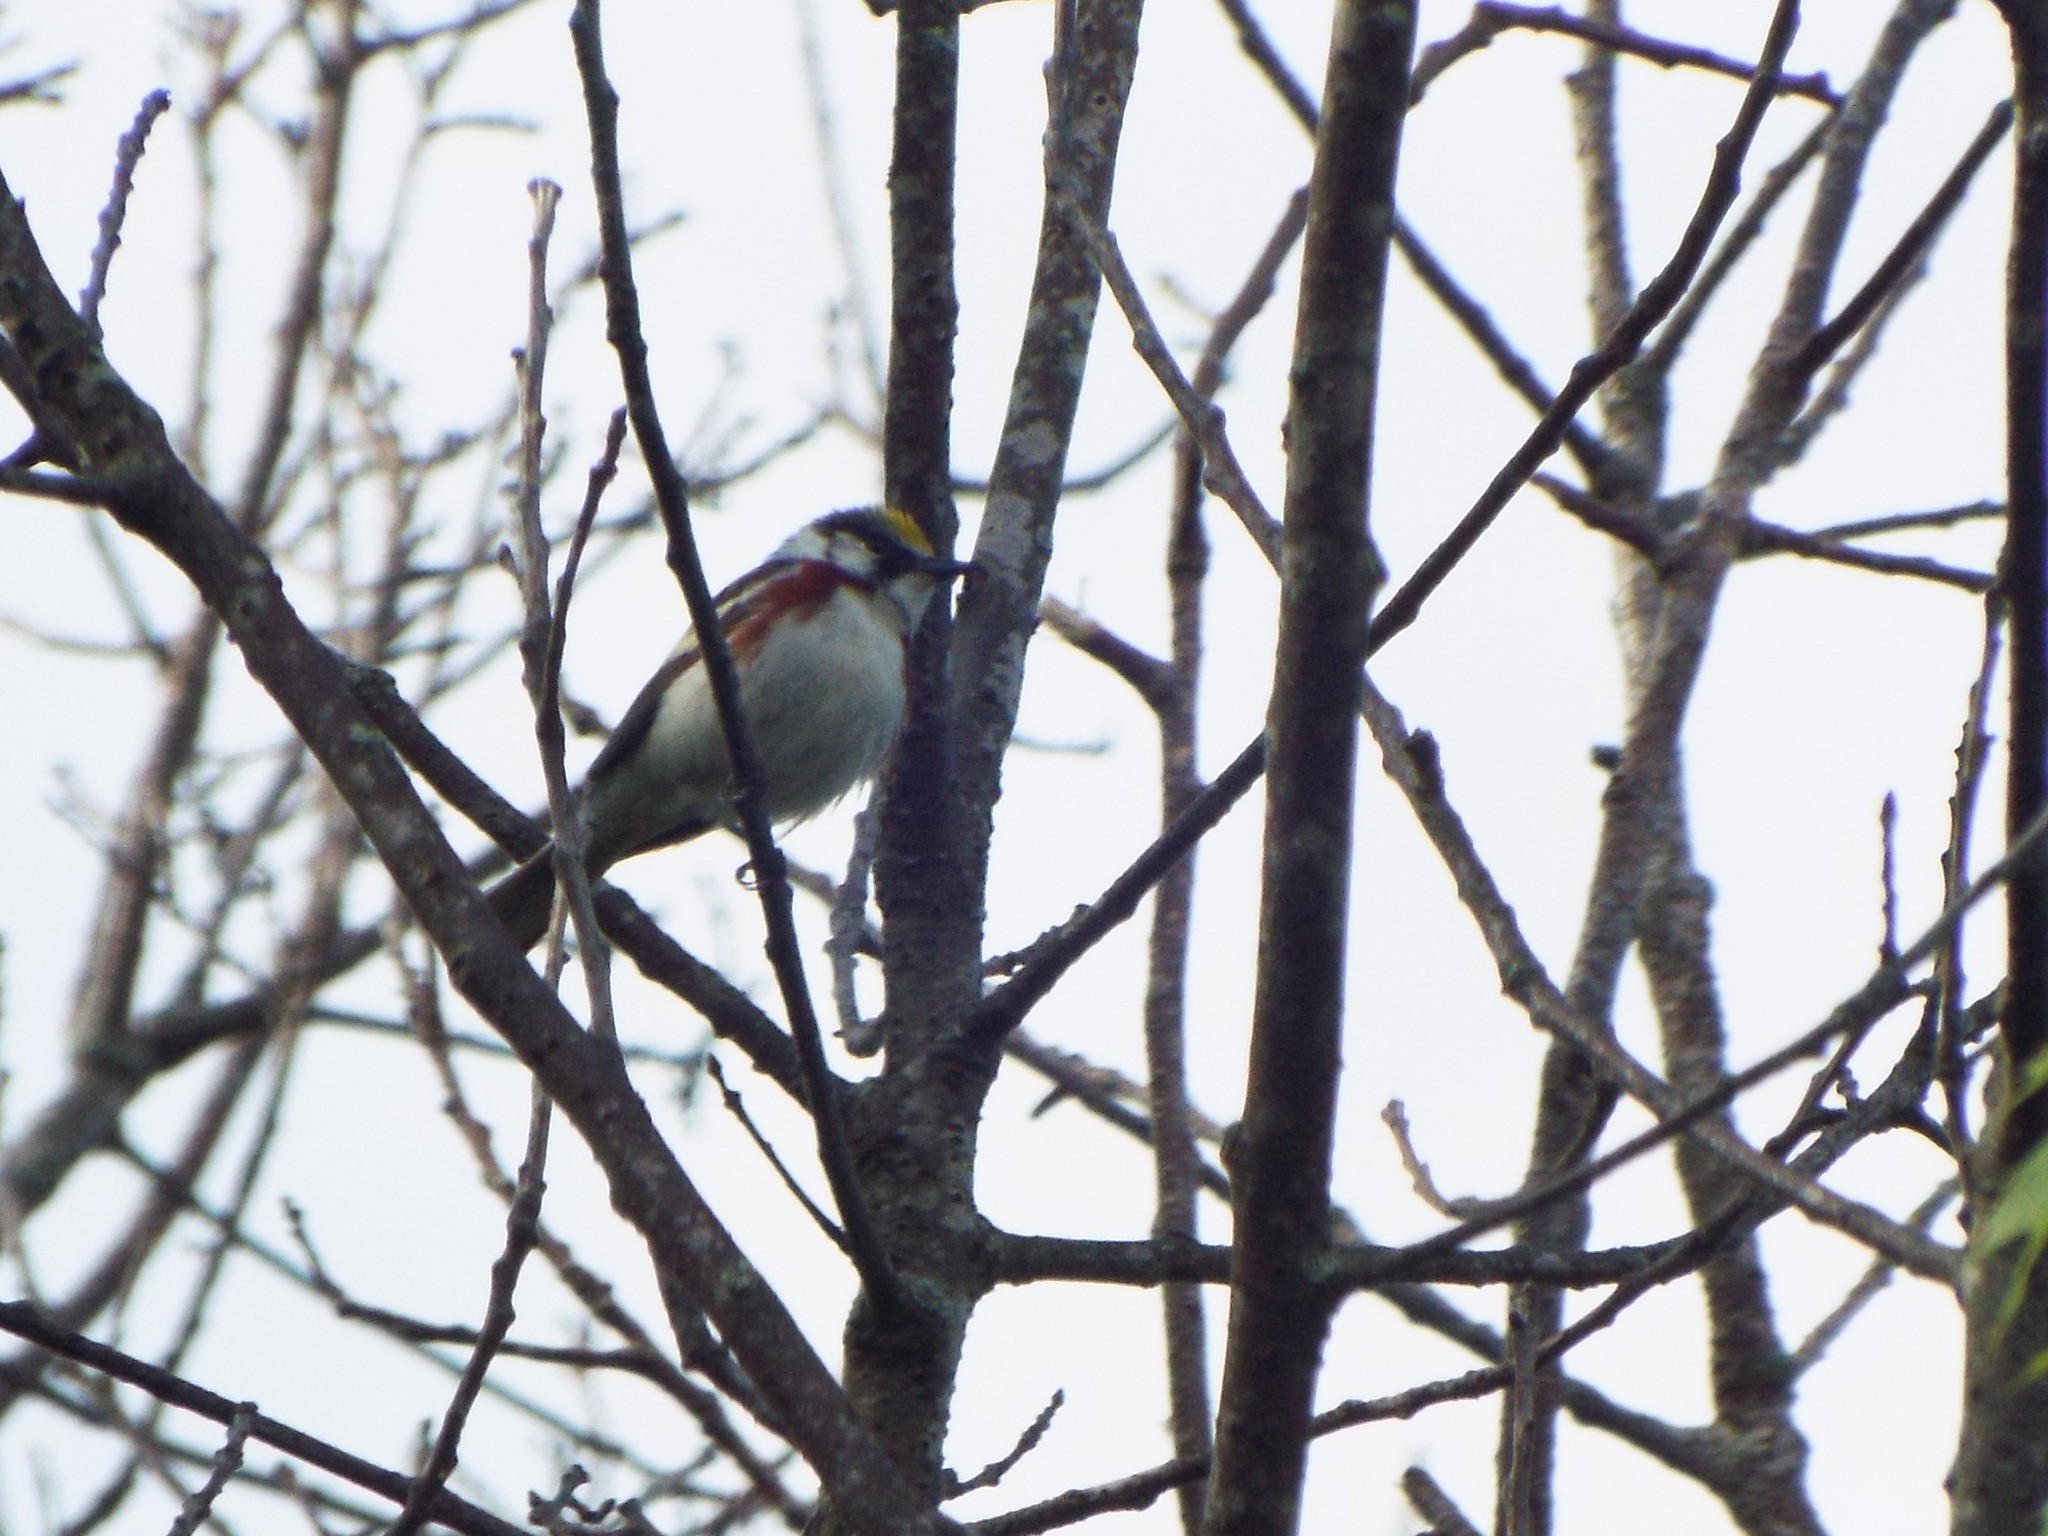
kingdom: Animalia
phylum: Chordata
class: Aves
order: Passeriformes
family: Parulidae
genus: Setophaga
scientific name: Setophaga pensylvanica
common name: Chestnut-sided warbler
